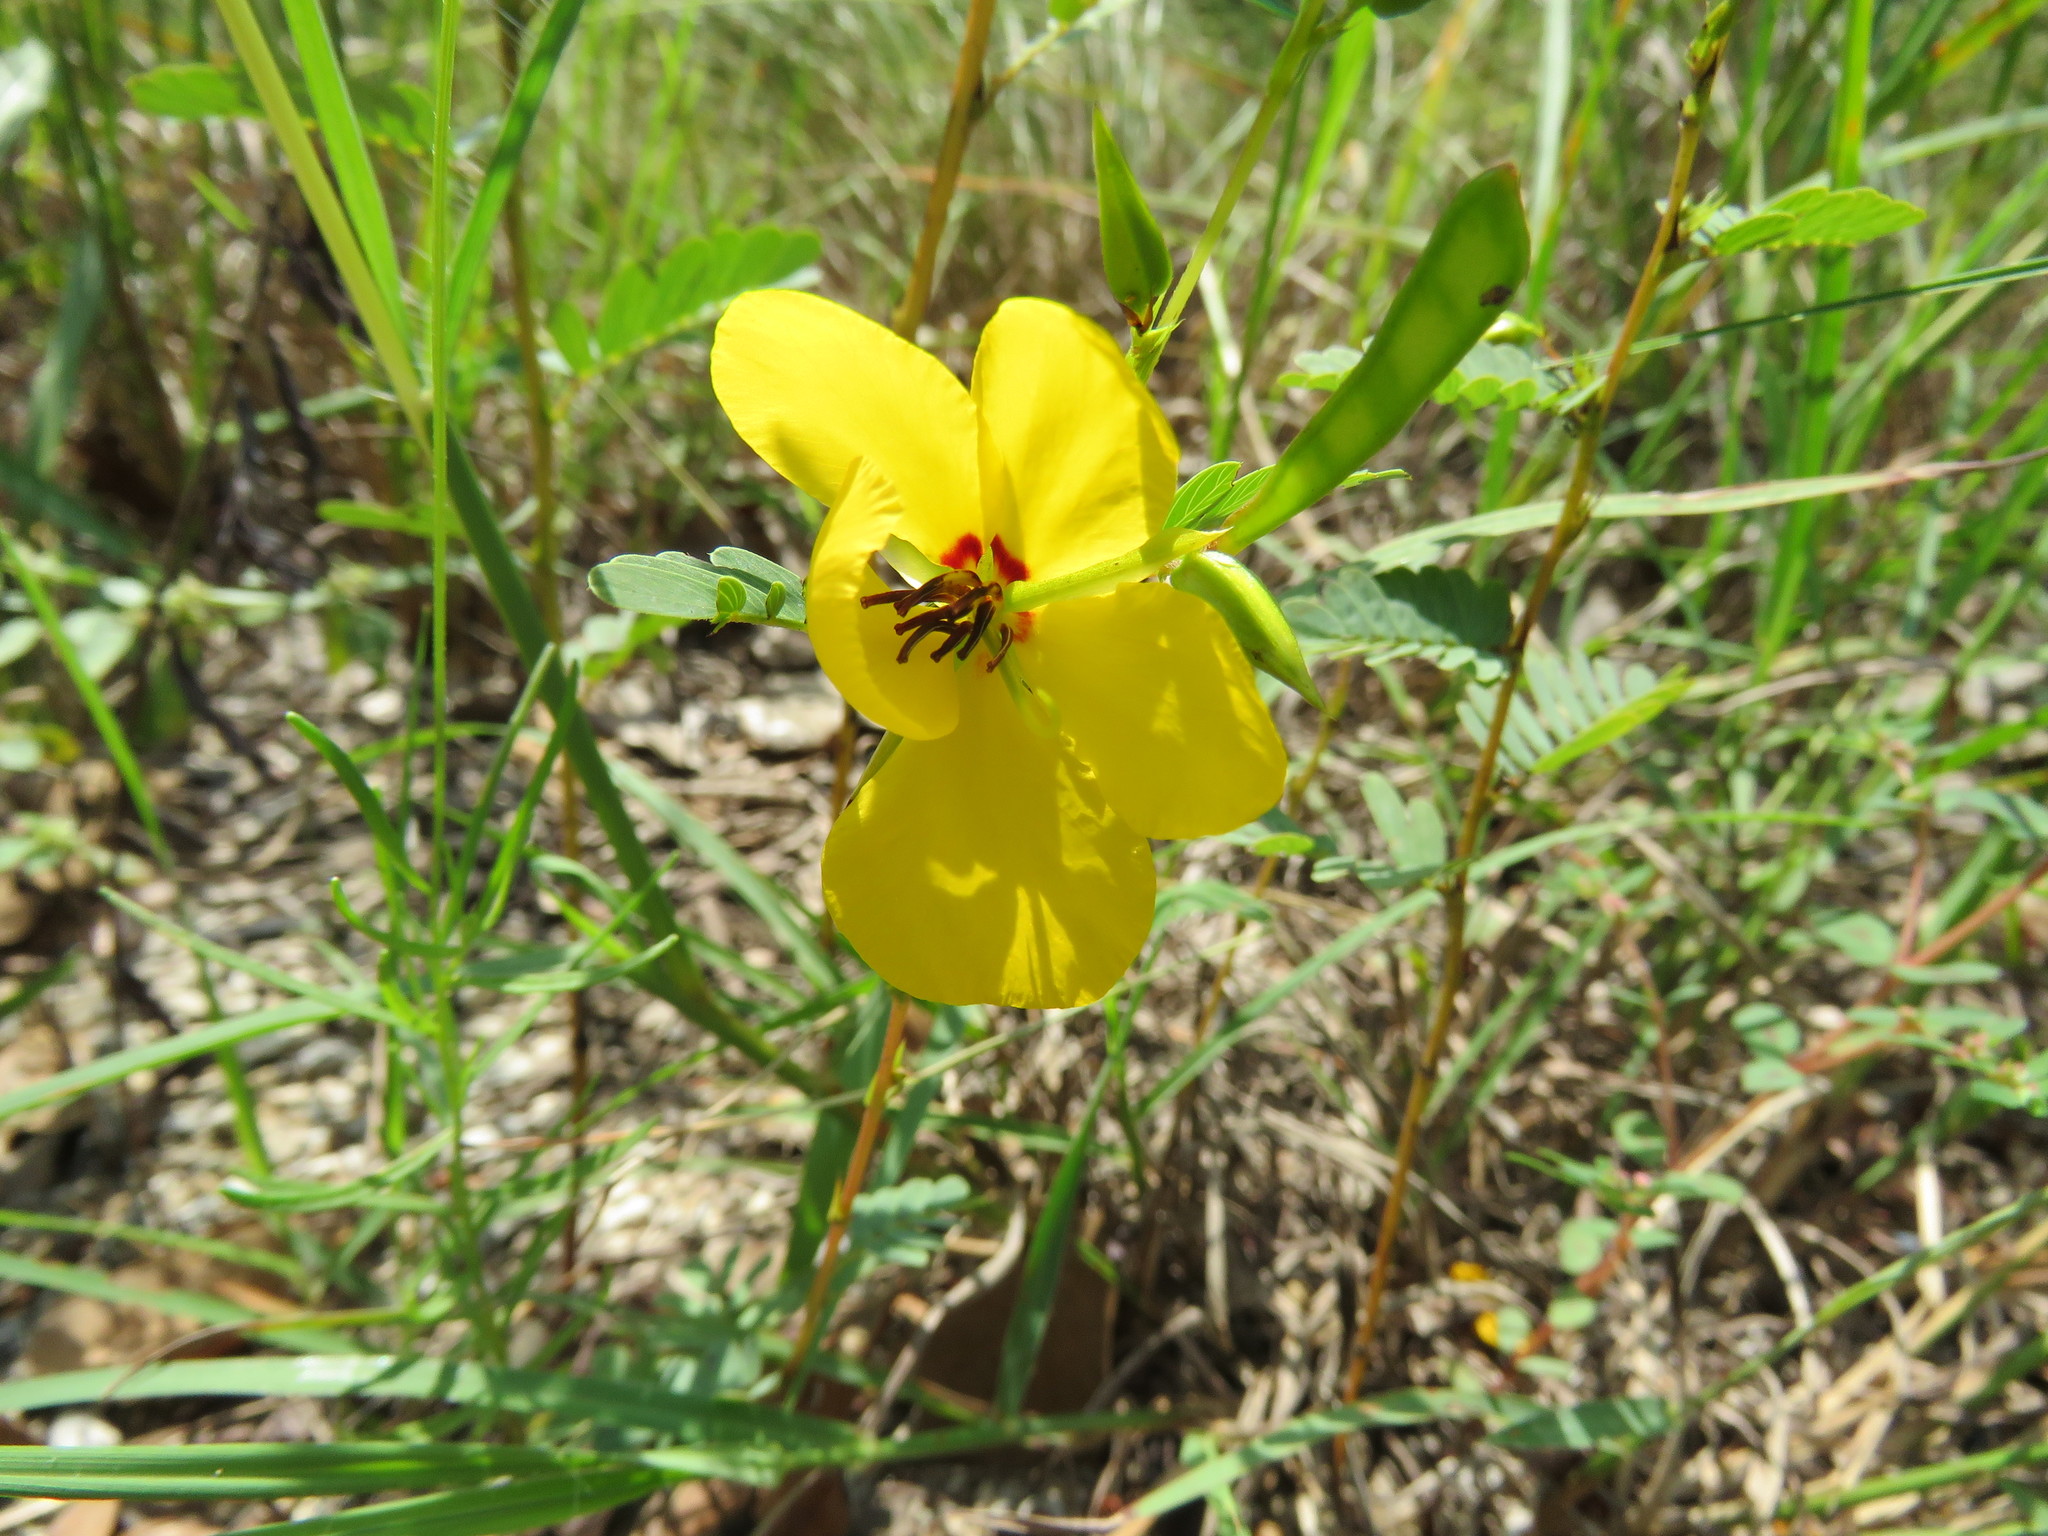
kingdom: Plantae
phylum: Tracheophyta
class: Magnoliopsida
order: Fabales
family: Fabaceae
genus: Chamaecrista
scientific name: Chamaecrista fasciculata
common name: Golden cassia
